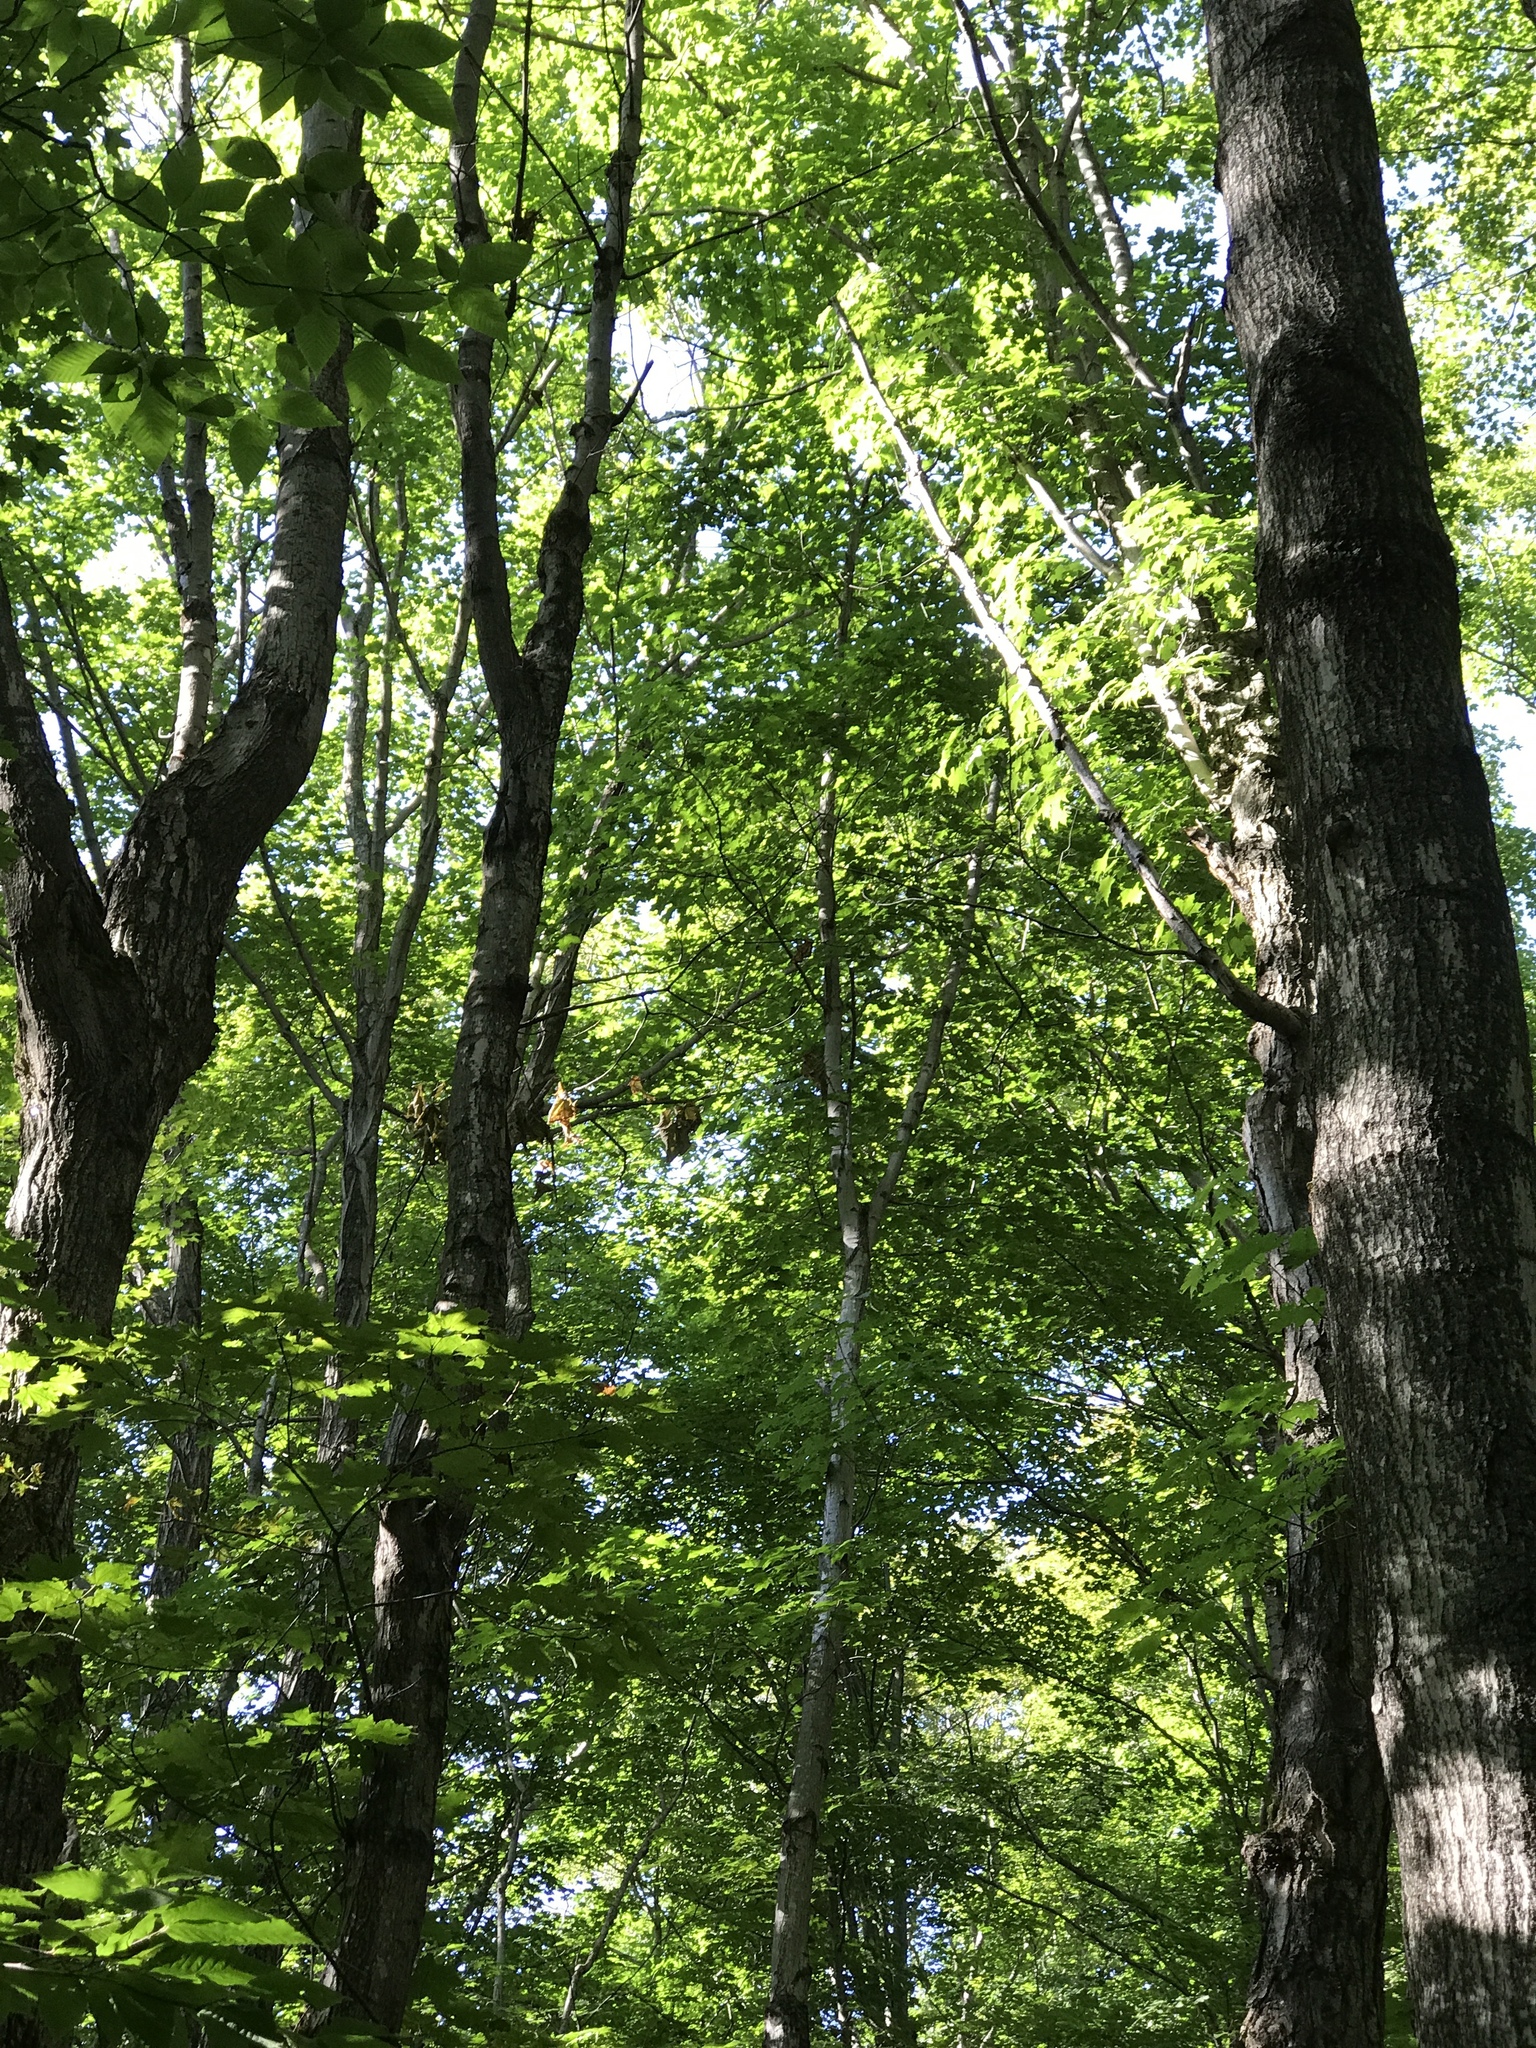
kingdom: Plantae
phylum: Tracheophyta
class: Magnoliopsida
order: Sapindales
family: Sapindaceae
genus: Acer
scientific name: Acer saccharum
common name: Sugar maple
